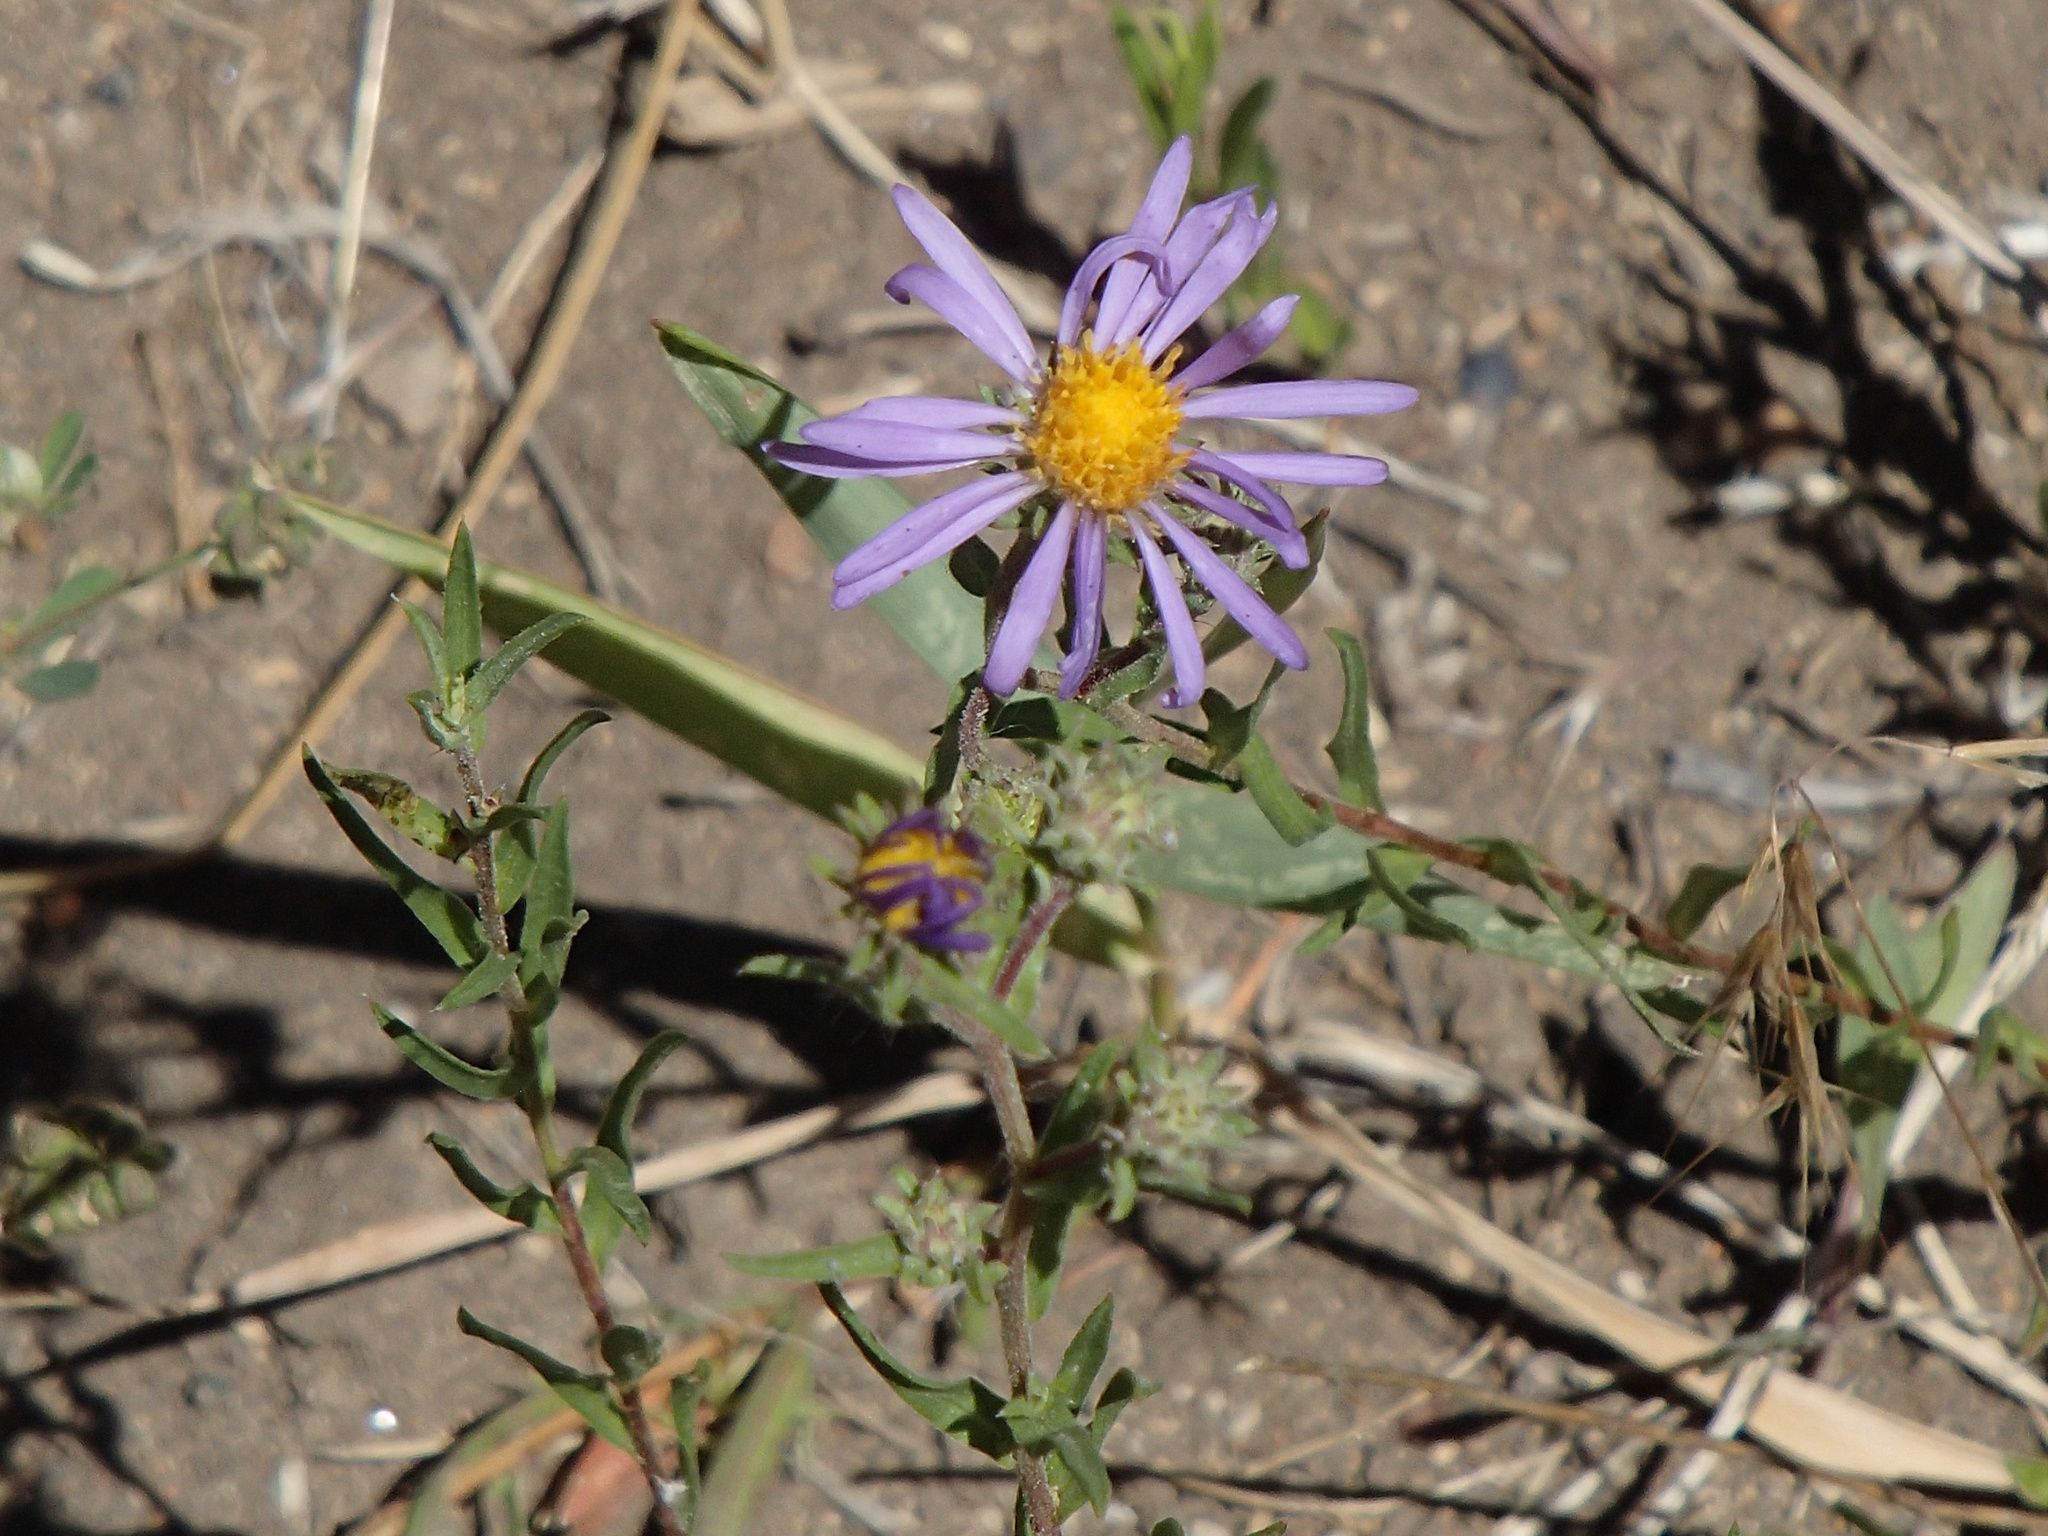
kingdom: Plantae
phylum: Tracheophyta
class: Magnoliopsida
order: Asterales
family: Asteraceae
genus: Symphyotrichum
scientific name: Symphyotrichum
